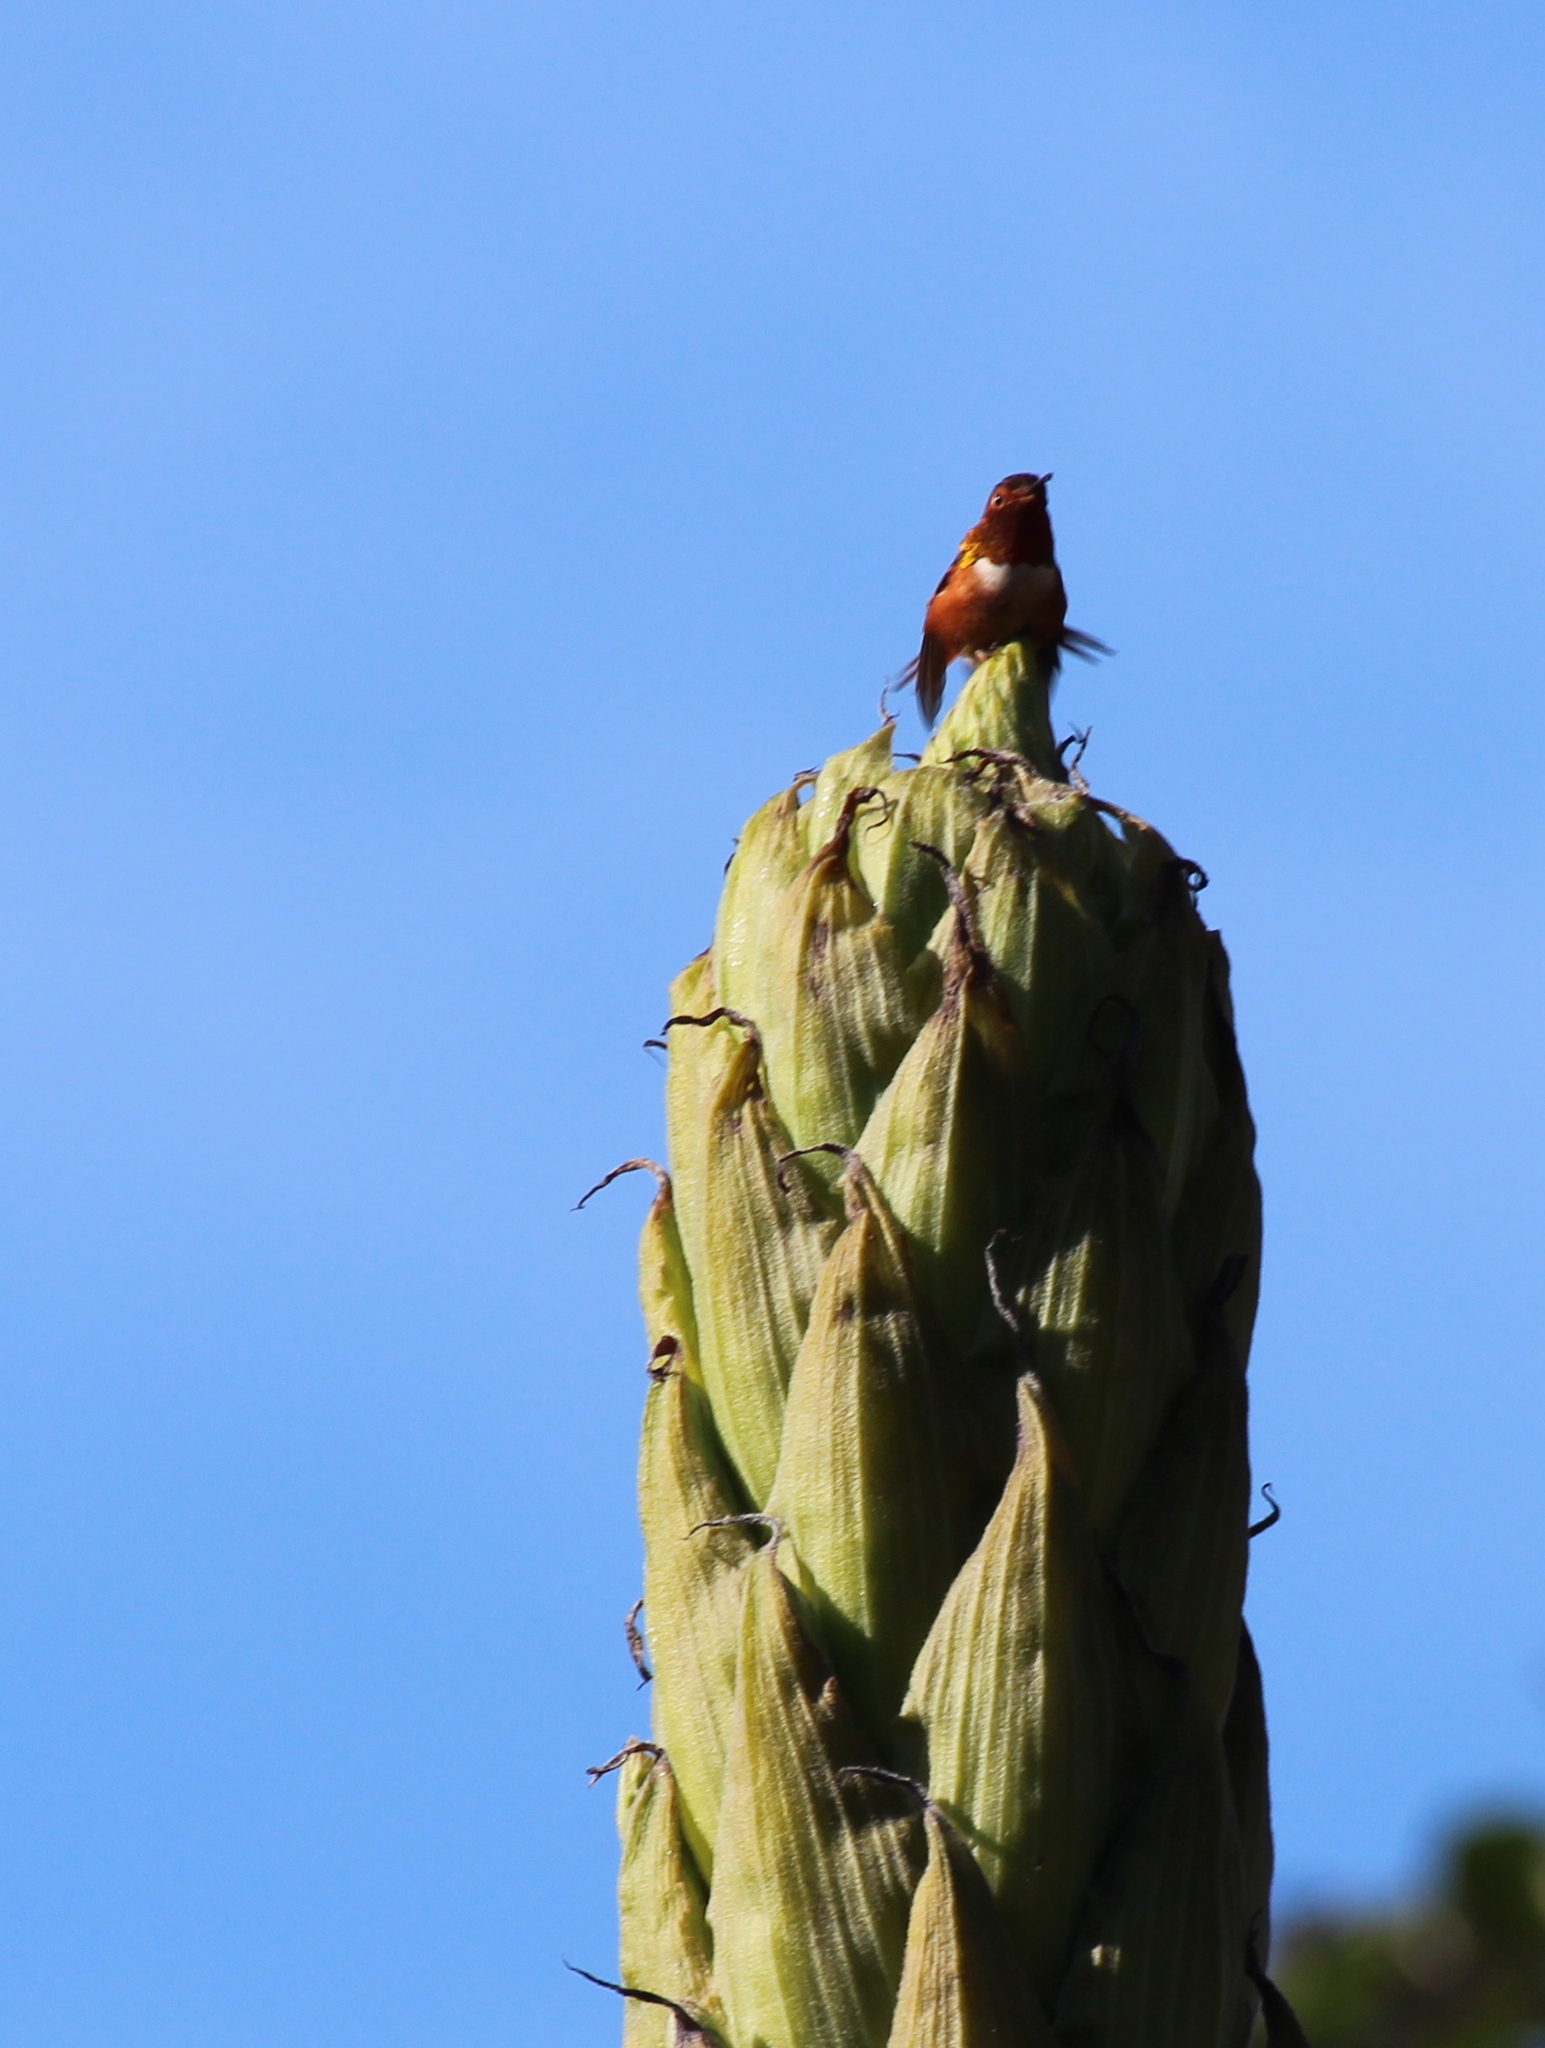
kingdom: Animalia
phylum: Chordata
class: Aves
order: Apodiformes
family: Trochilidae
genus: Selasphorus
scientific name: Selasphorus sasin
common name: Allen's hummingbird
